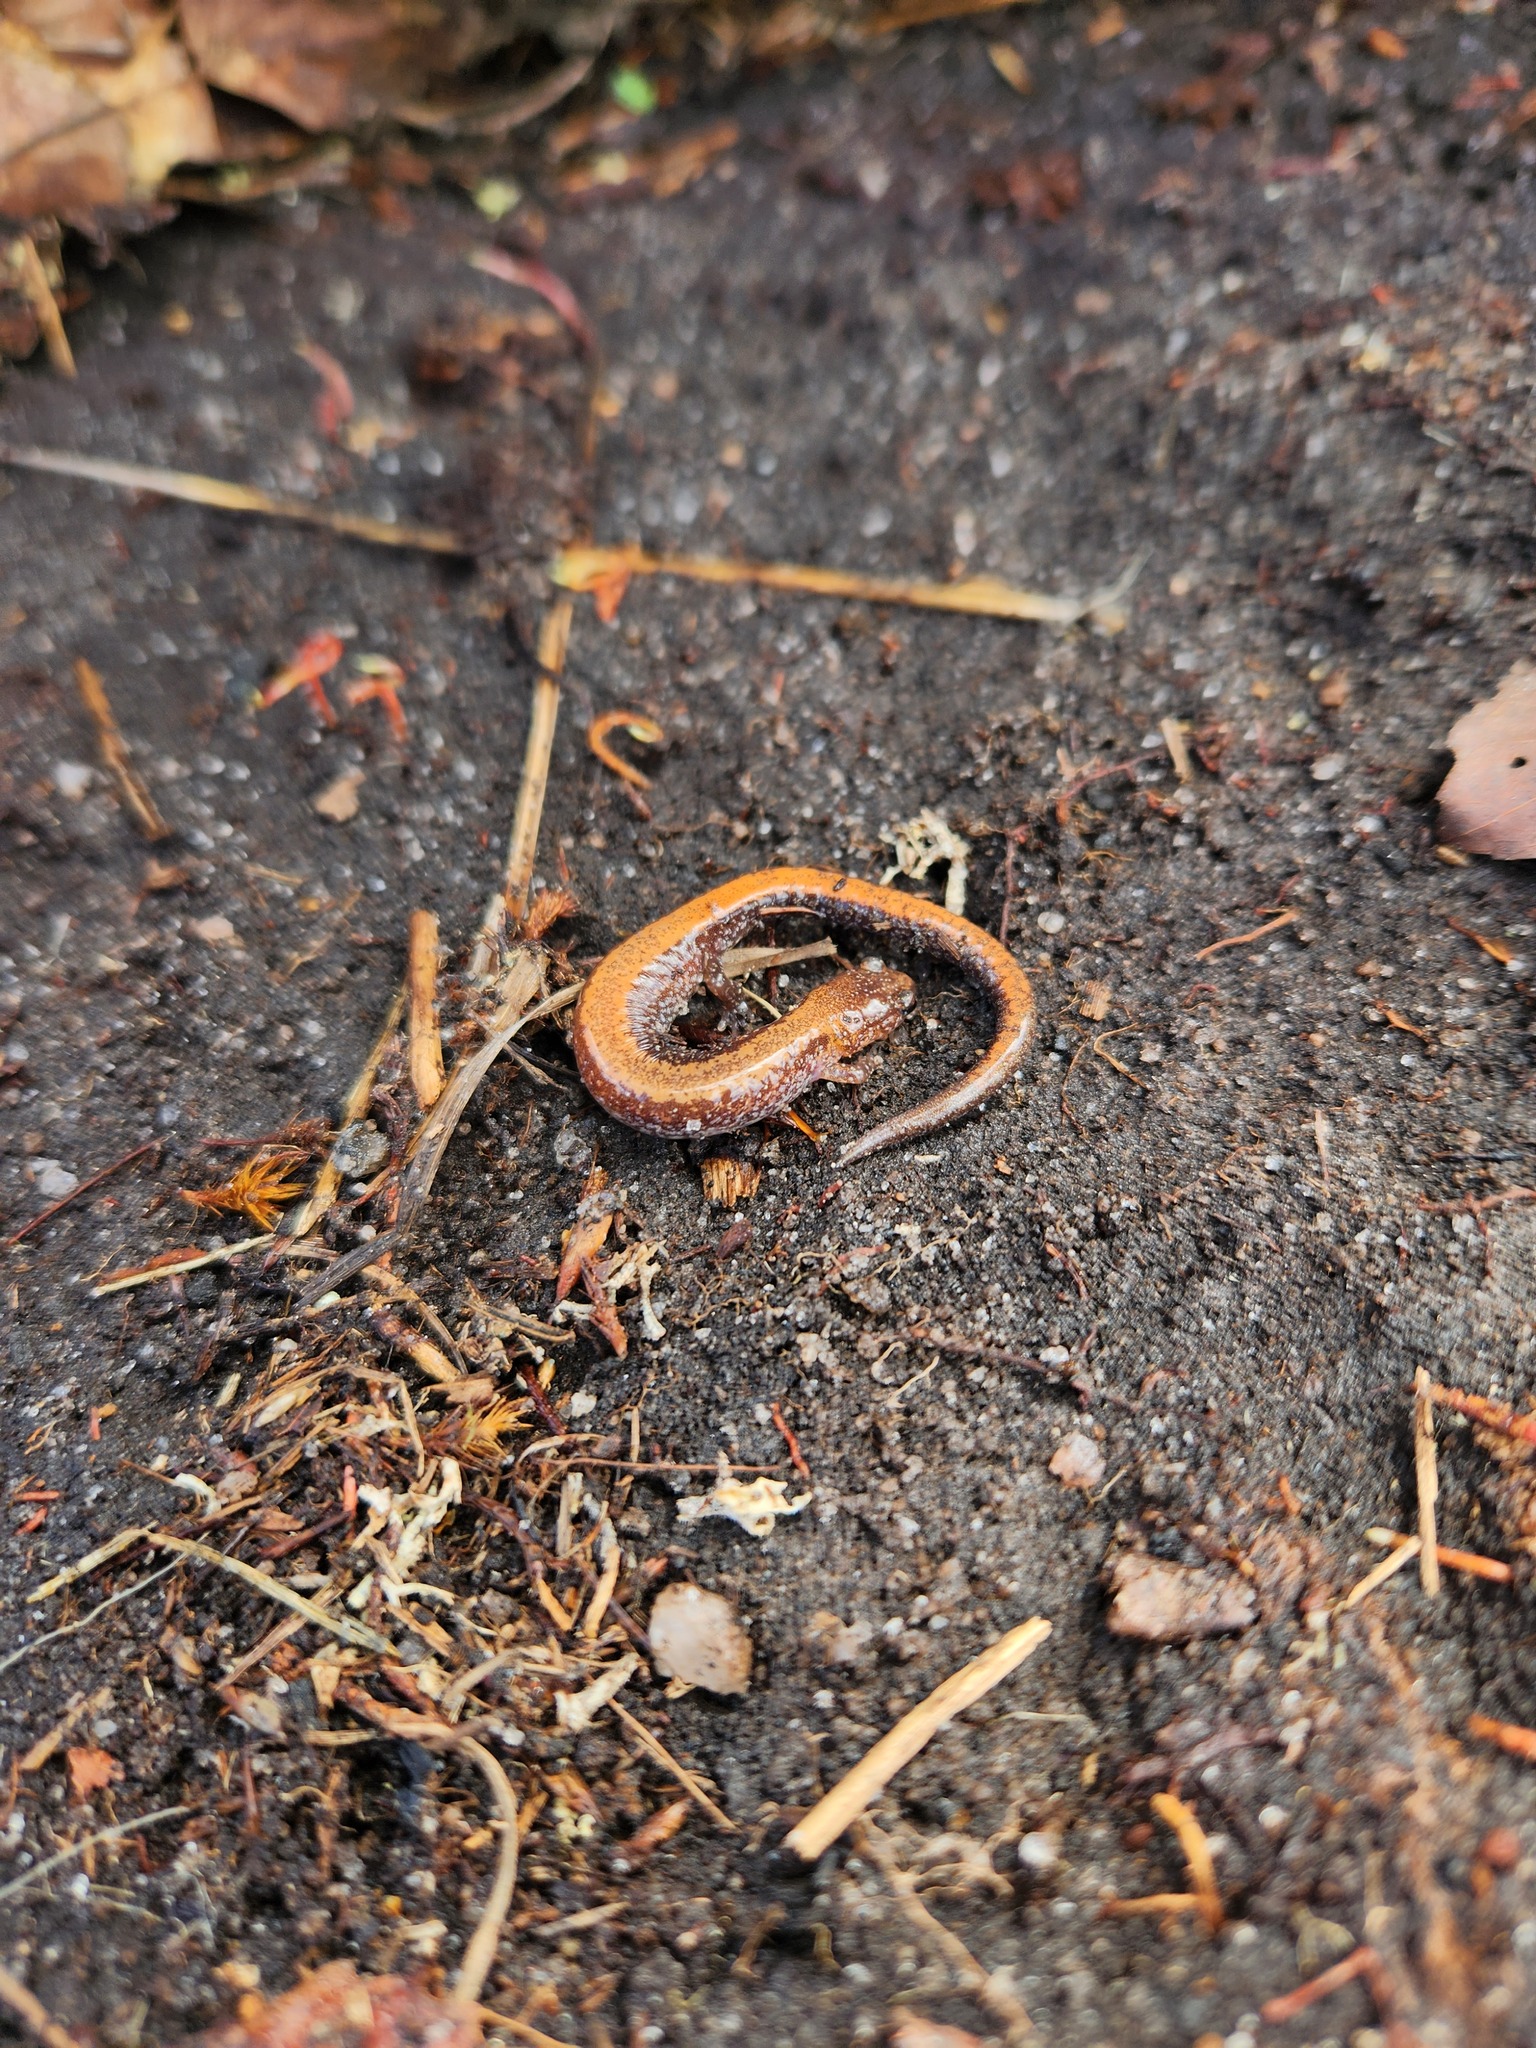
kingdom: Animalia
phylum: Chordata
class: Amphibia
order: Caudata
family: Plethodontidae
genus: Plethodon
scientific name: Plethodon cinereus
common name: Redback salamander
